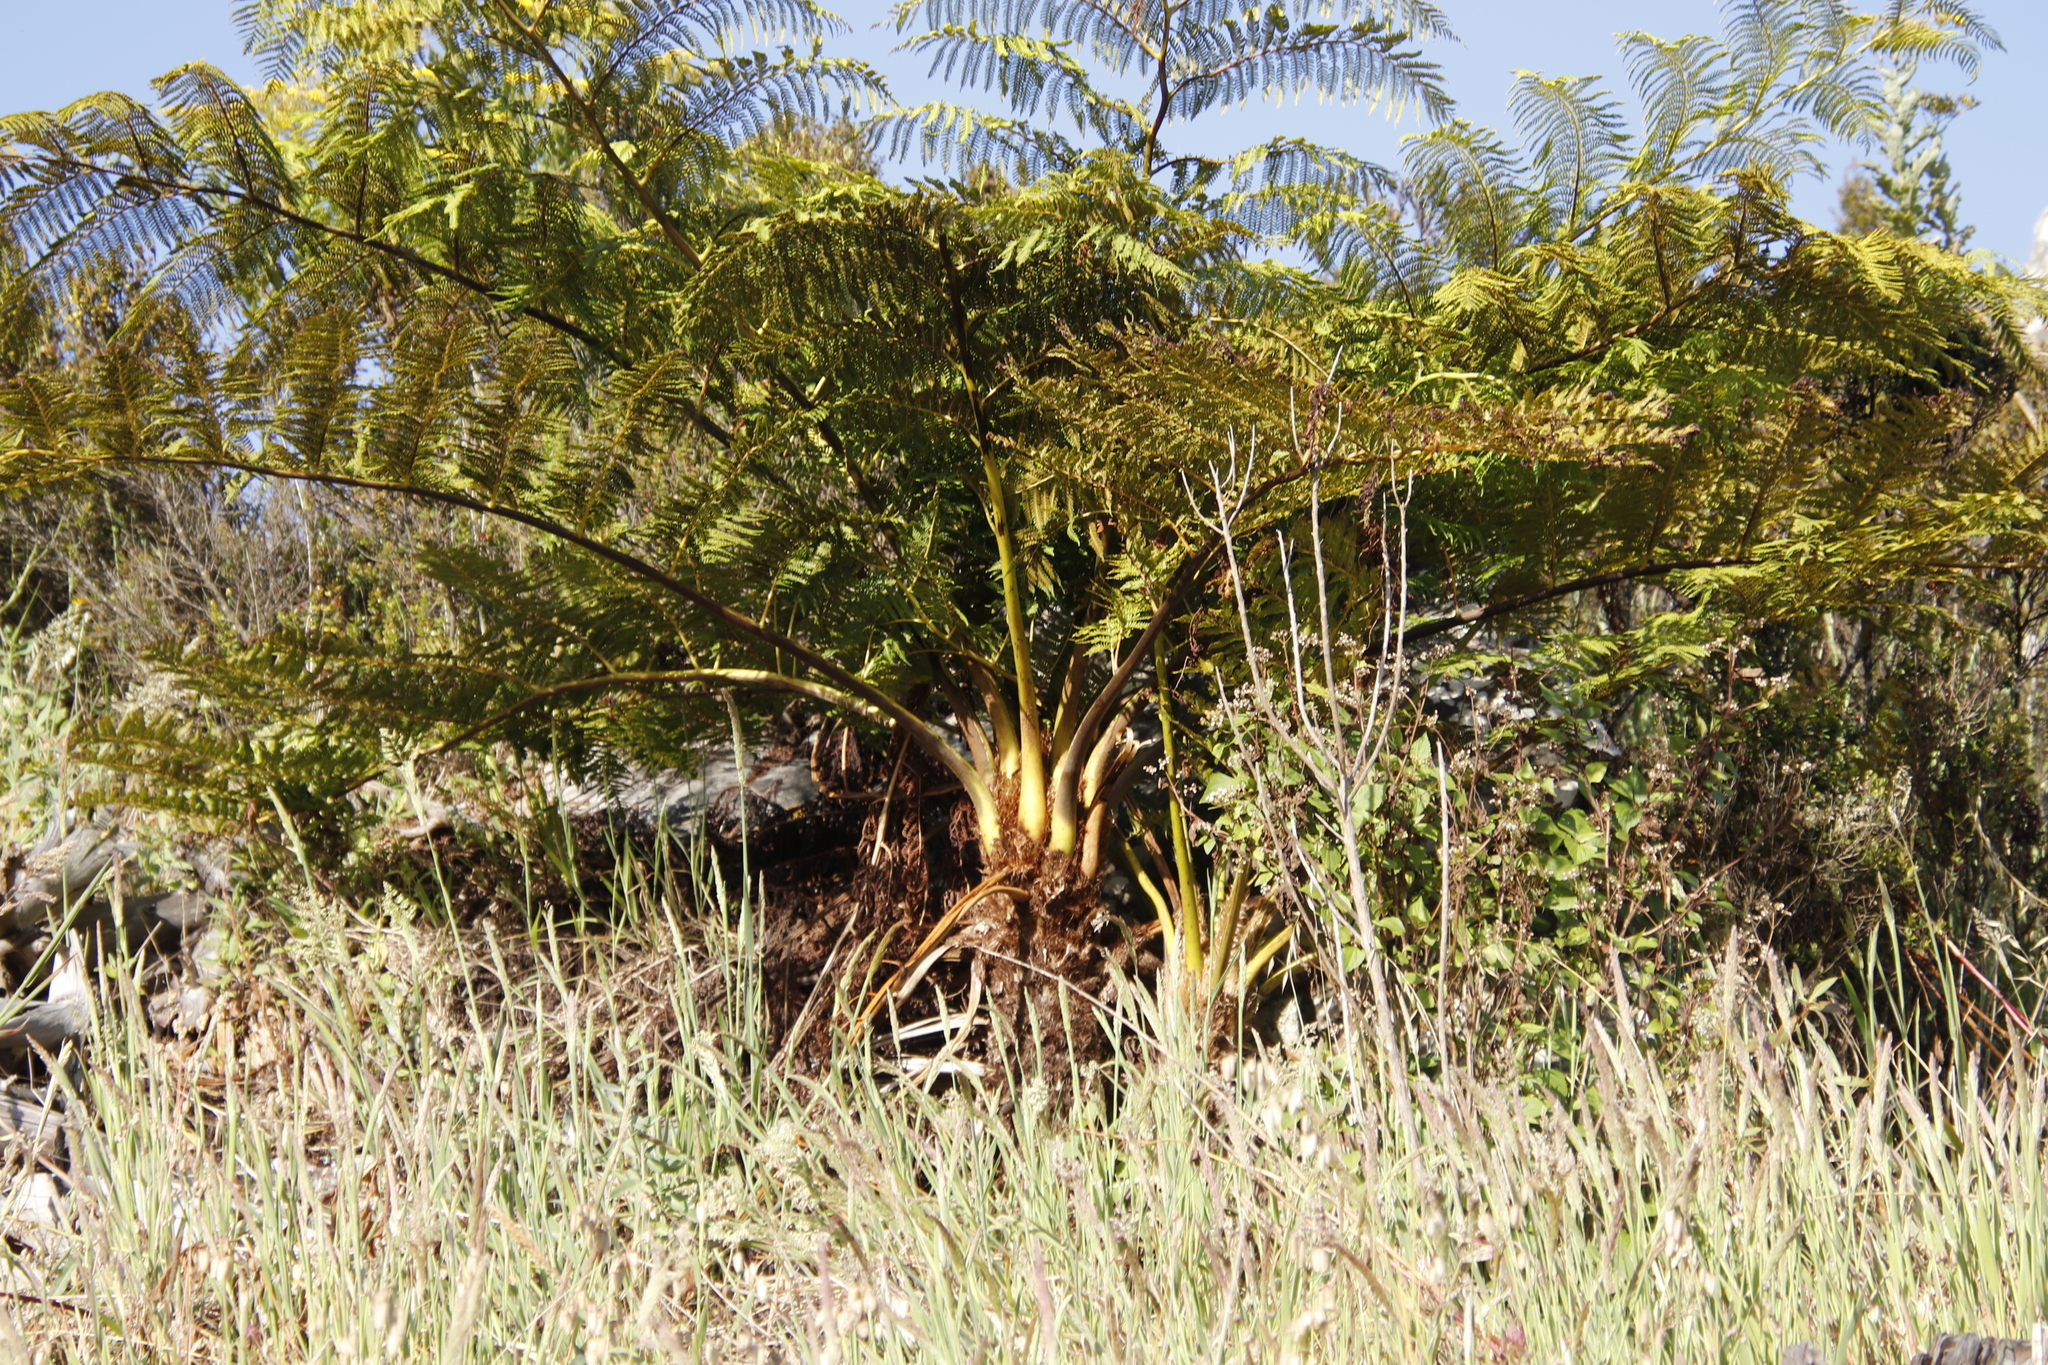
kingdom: Plantae
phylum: Tracheophyta
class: Polypodiopsida
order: Cyatheales
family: Cyatheaceae
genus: Sphaeropteris
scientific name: Sphaeropteris cooperi
